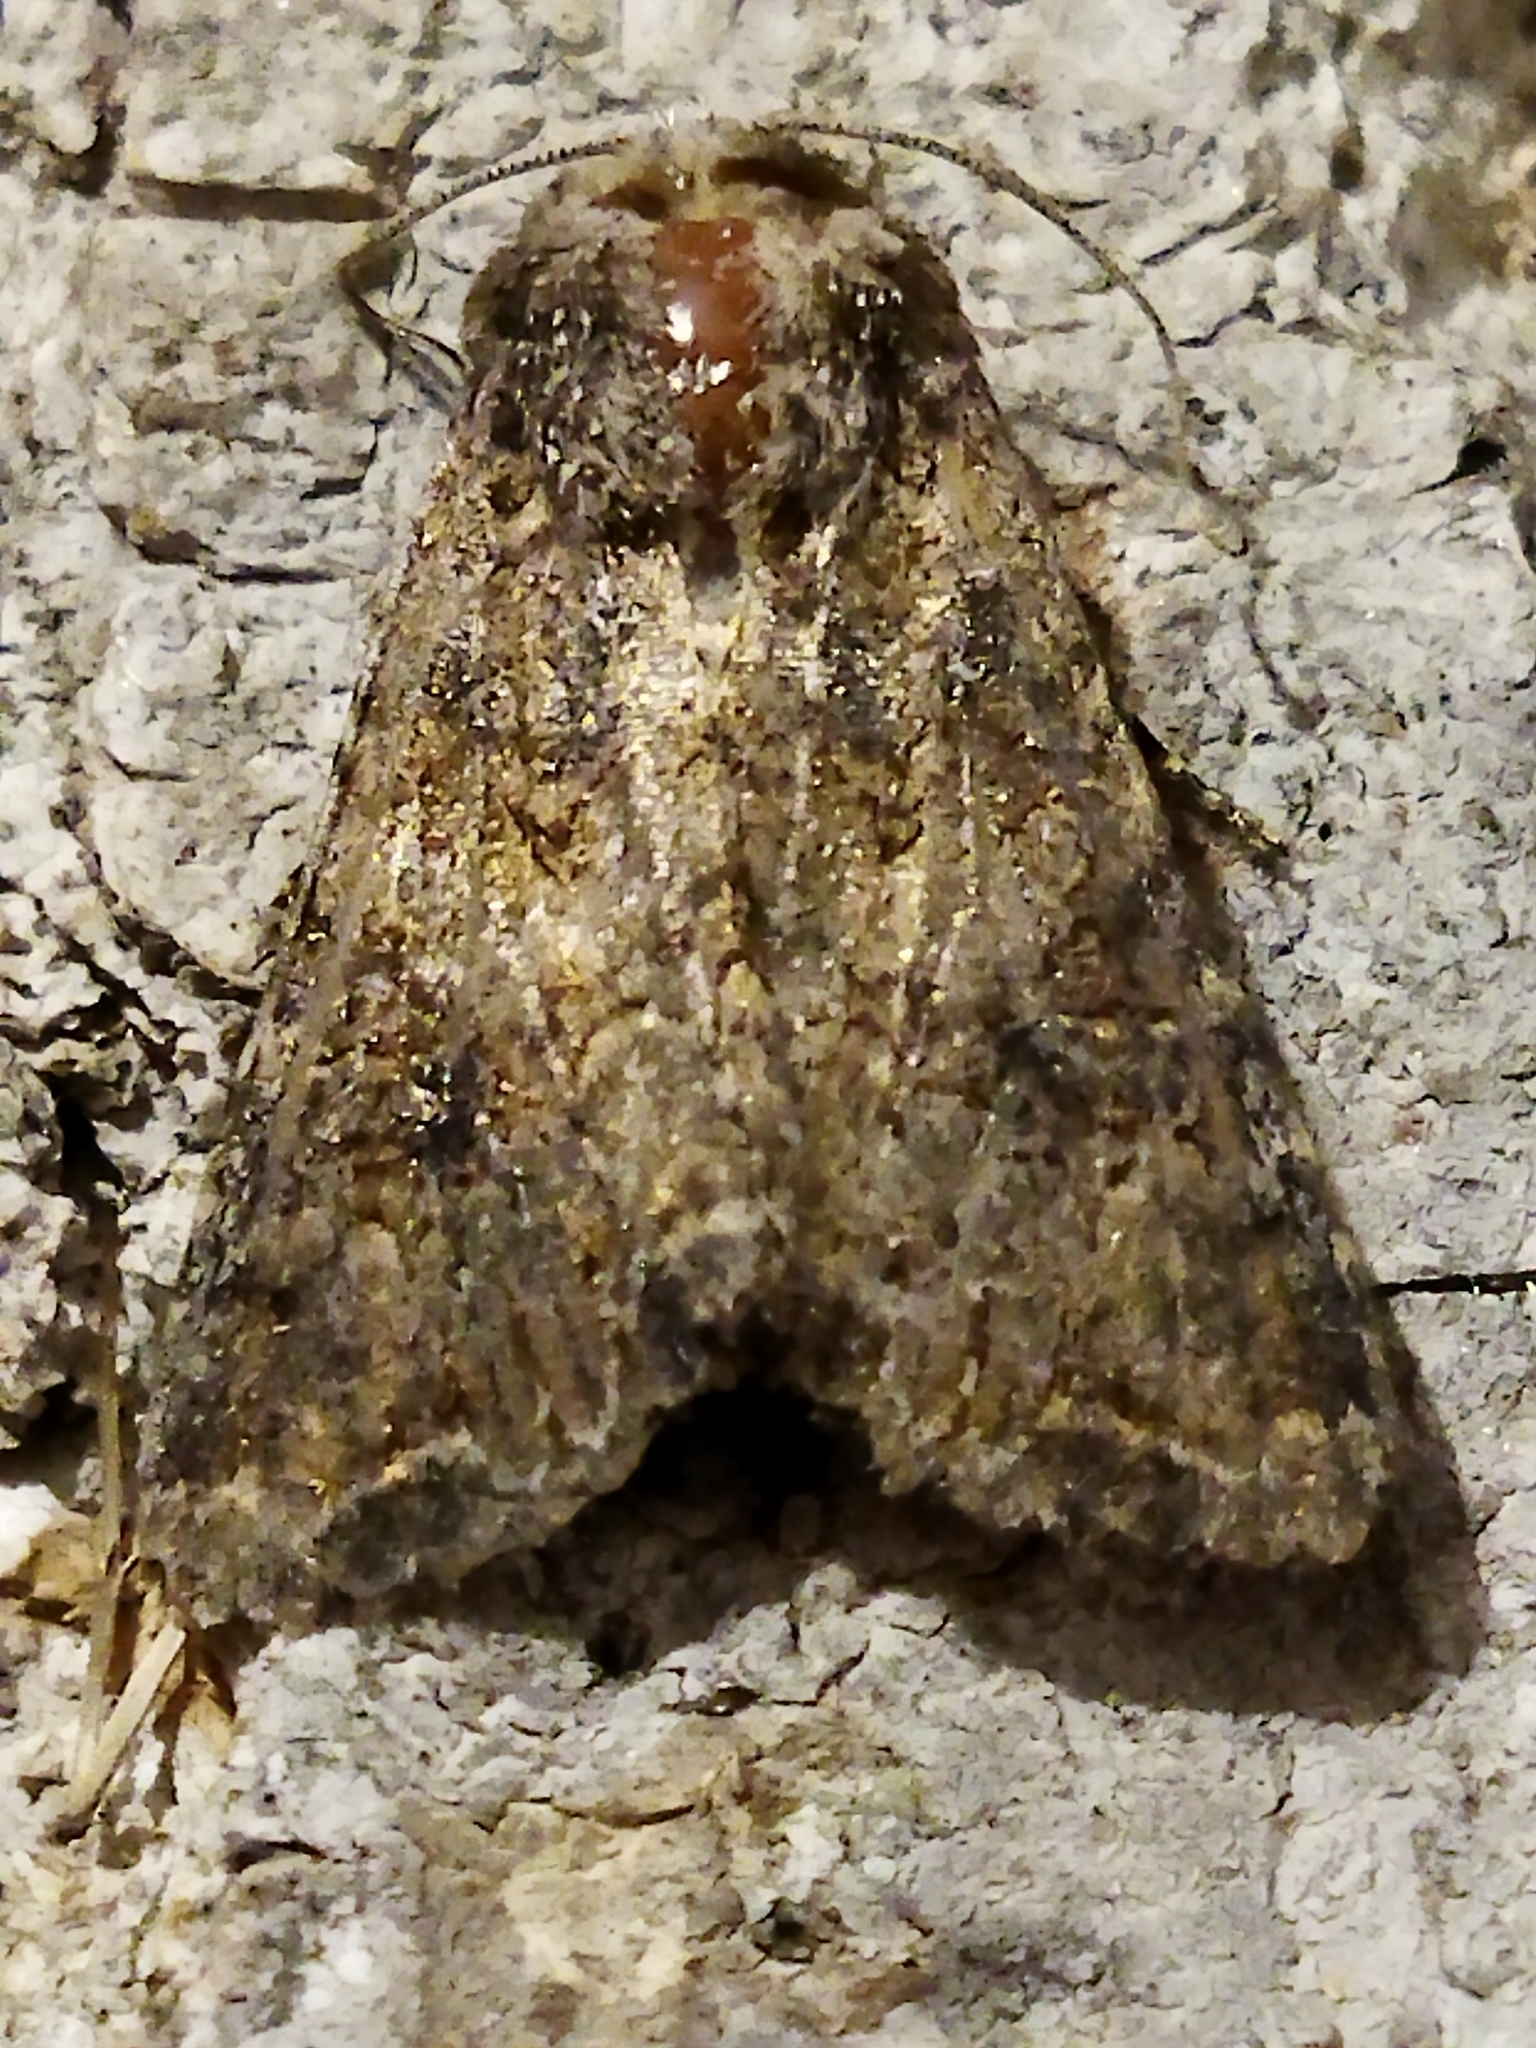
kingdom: Animalia
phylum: Arthropoda
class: Insecta
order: Lepidoptera
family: Noctuidae
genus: Anarta
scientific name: Anarta trifolii
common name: Clover cutworm moth
